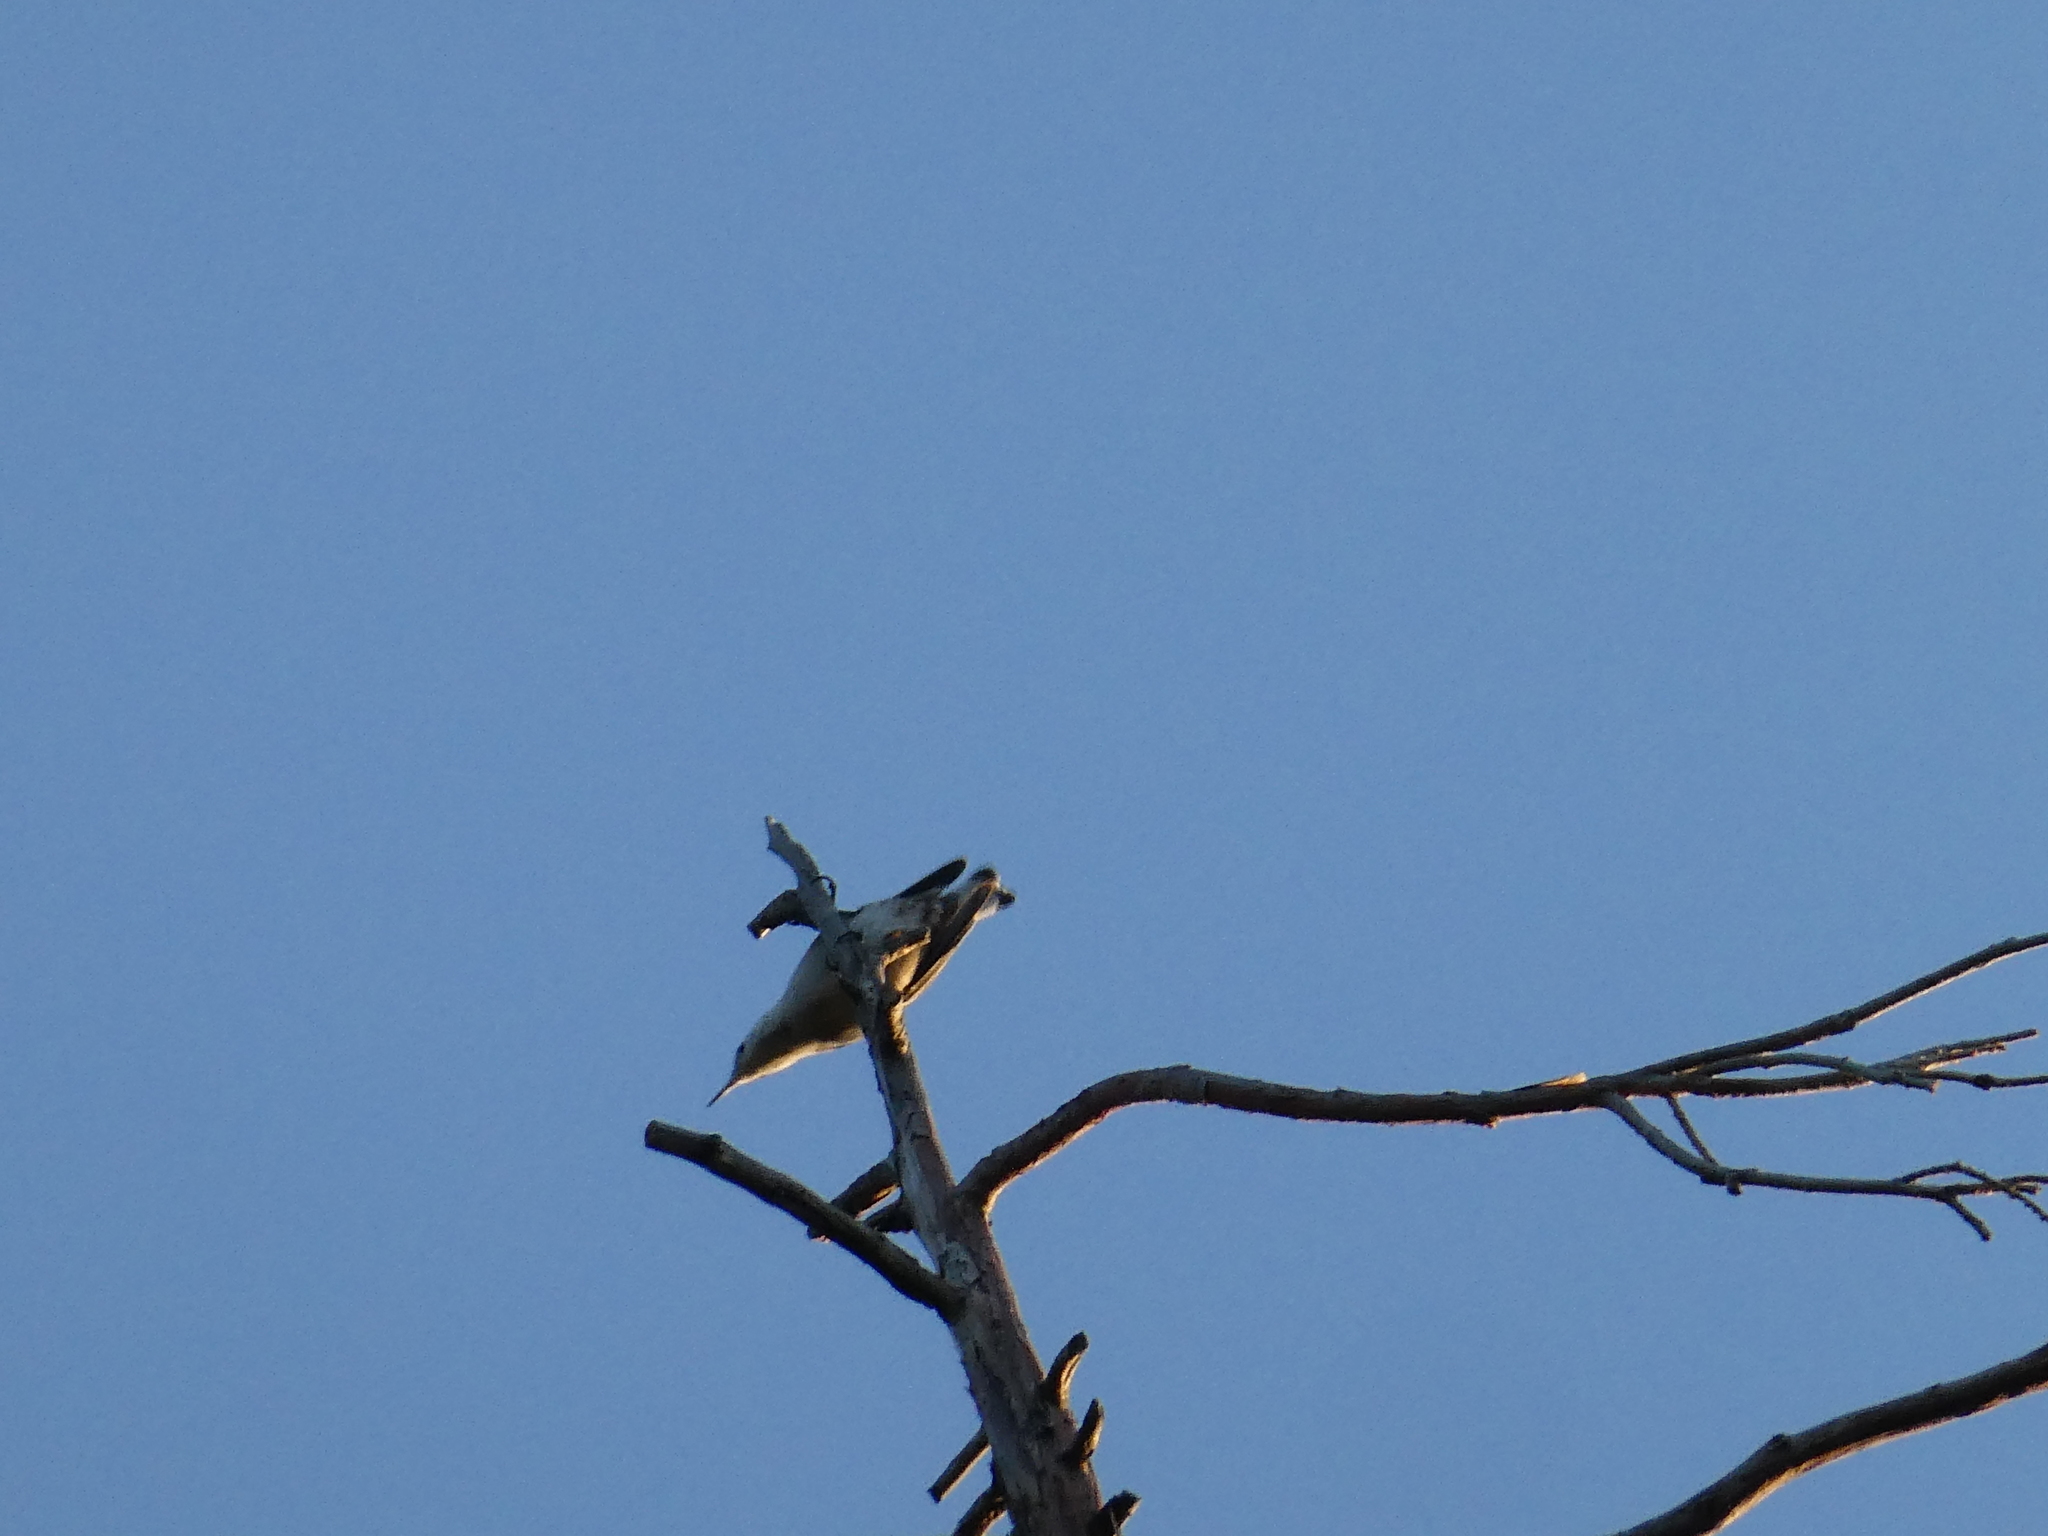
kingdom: Animalia
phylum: Chordata
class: Aves
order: Passeriformes
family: Sittidae
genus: Sitta
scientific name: Sitta carolinensis
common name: White-breasted nuthatch
